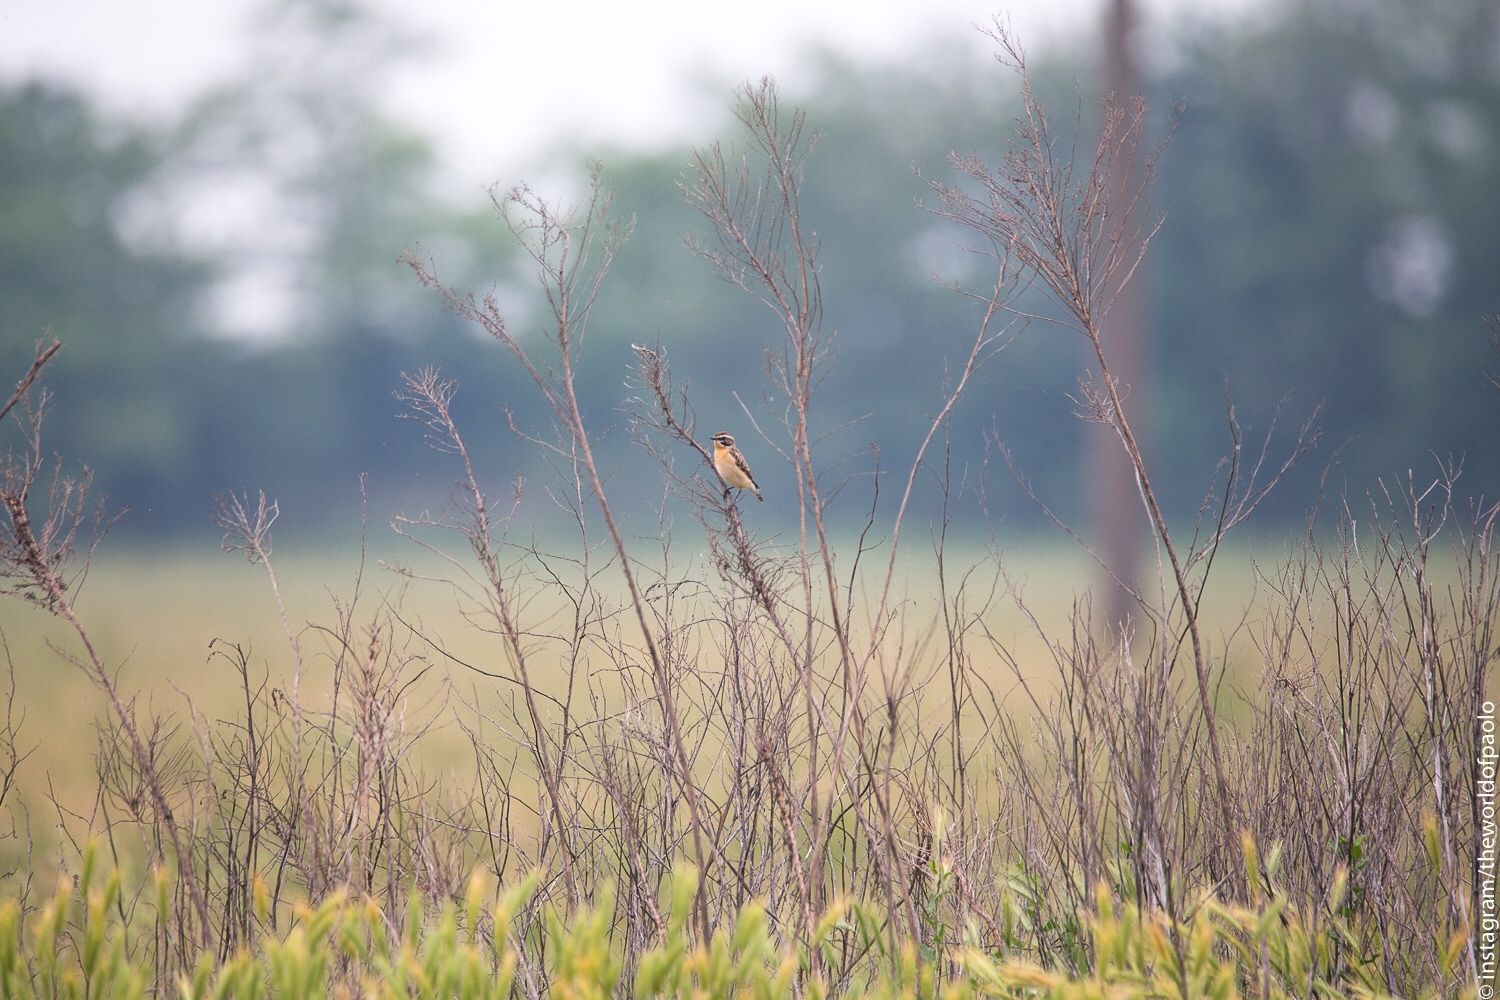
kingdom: Animalia
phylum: Chordata
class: Aves
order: Passeriformes
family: Muscicapidae
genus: Saxicola
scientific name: Saxicola rubetra
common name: Whinchat
